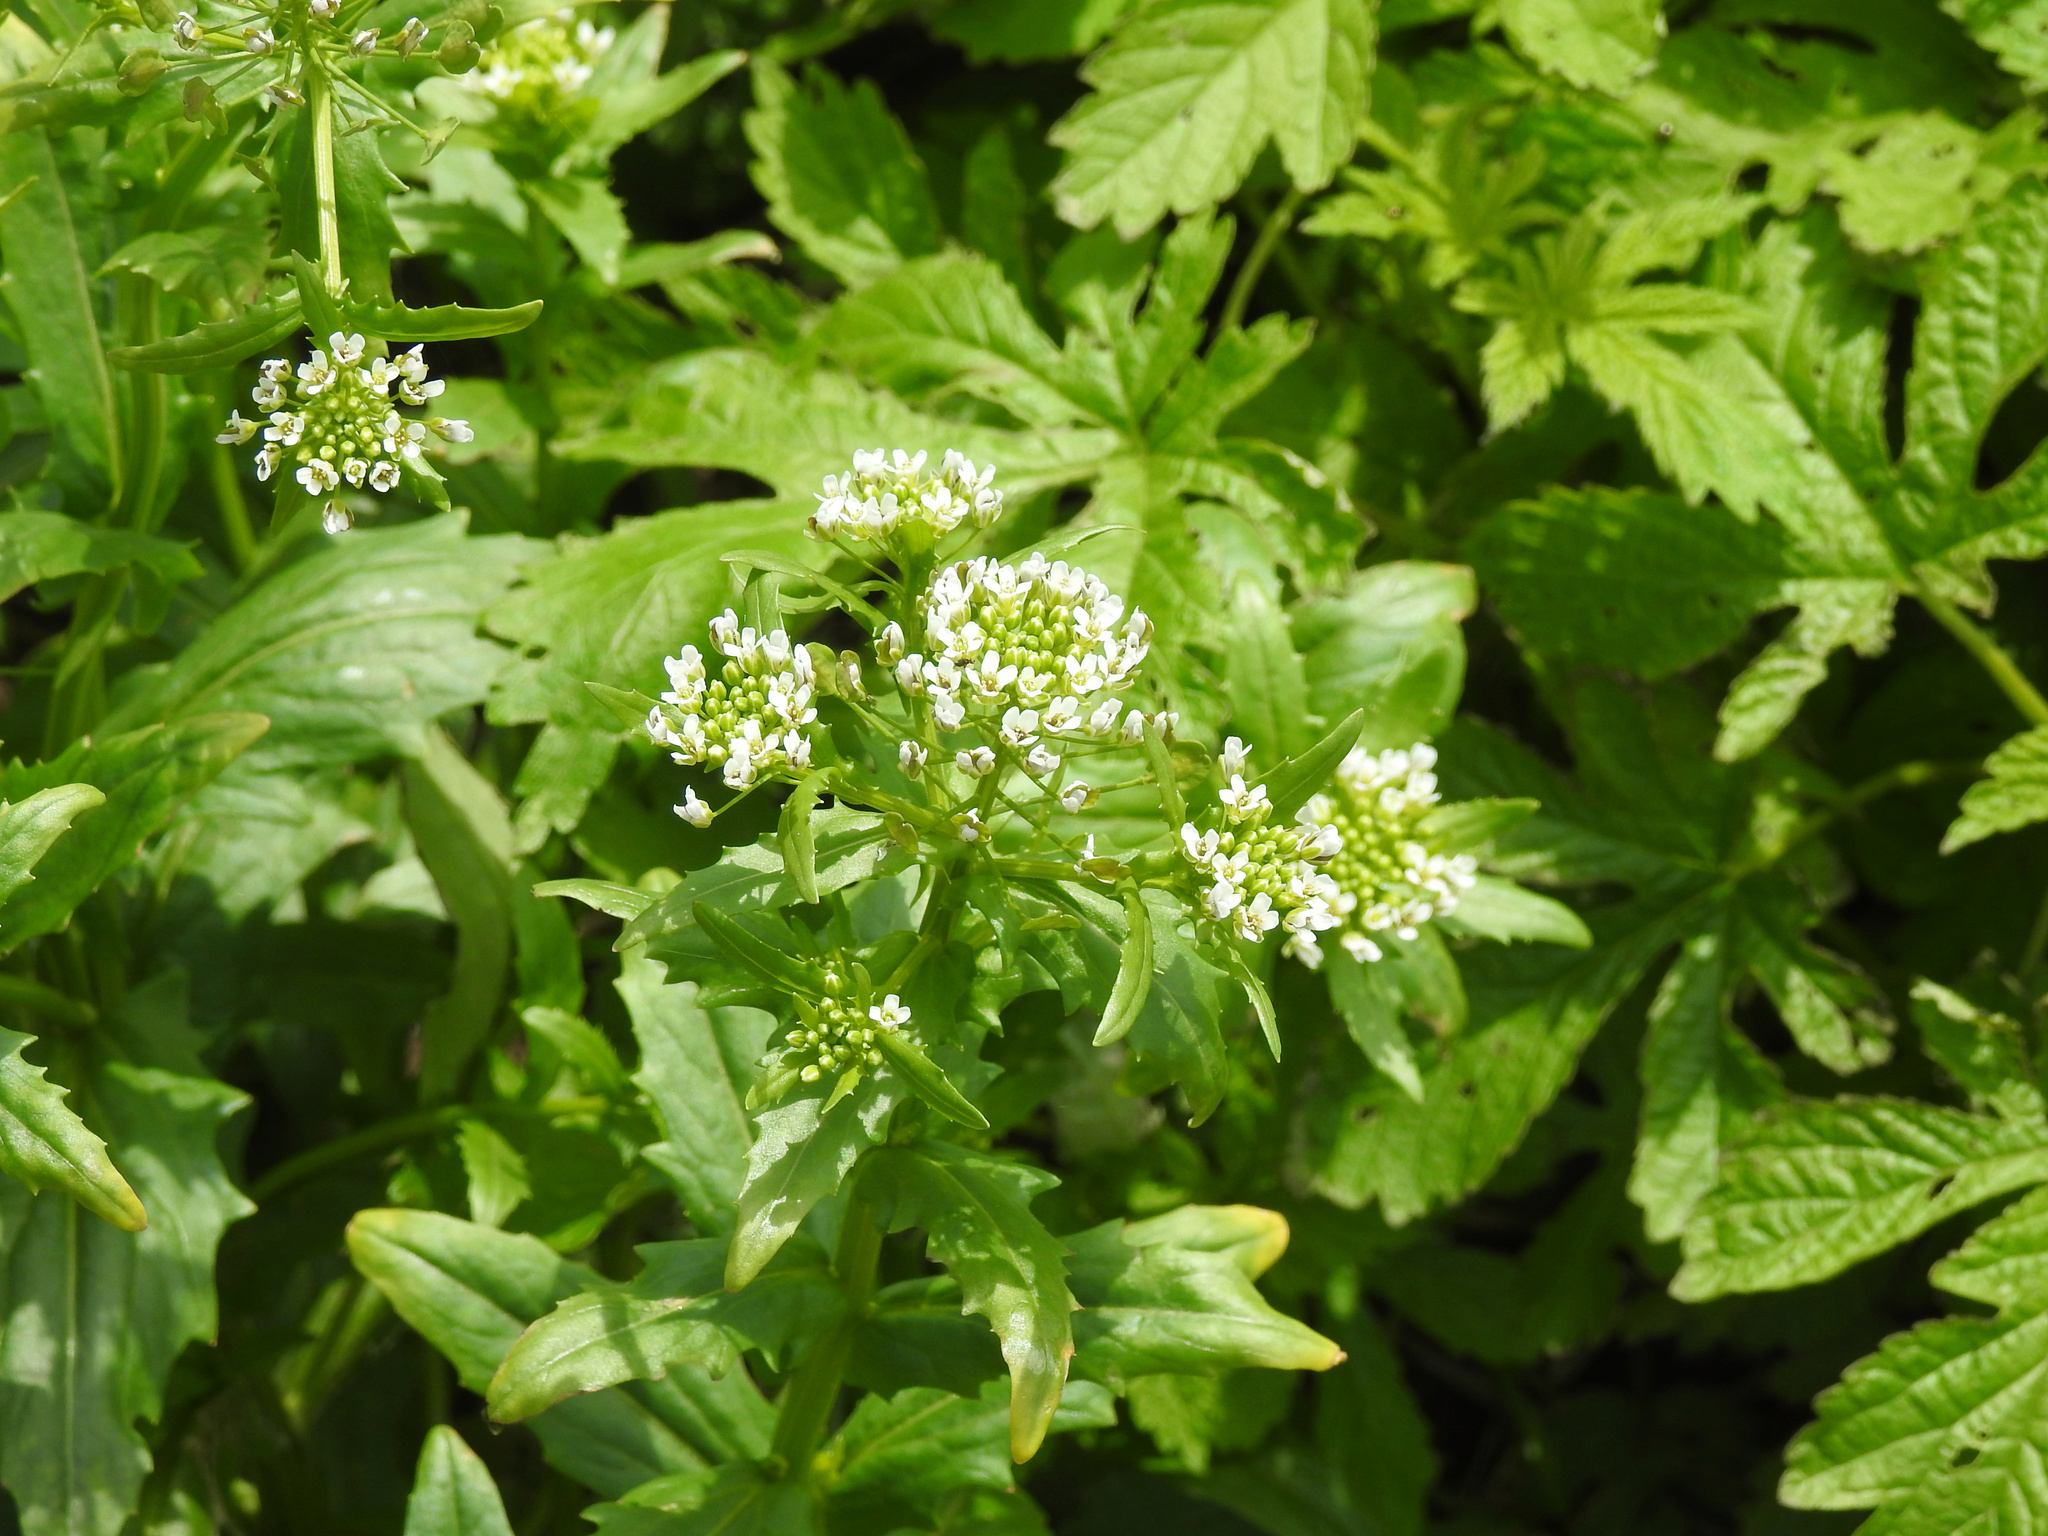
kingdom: Plantae
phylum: Tracheophyta
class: Magnoliopsida
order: Brassicales
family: Brassicaceae
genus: Thlaspi
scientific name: Thlaspi arvense
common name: Field pennycress
